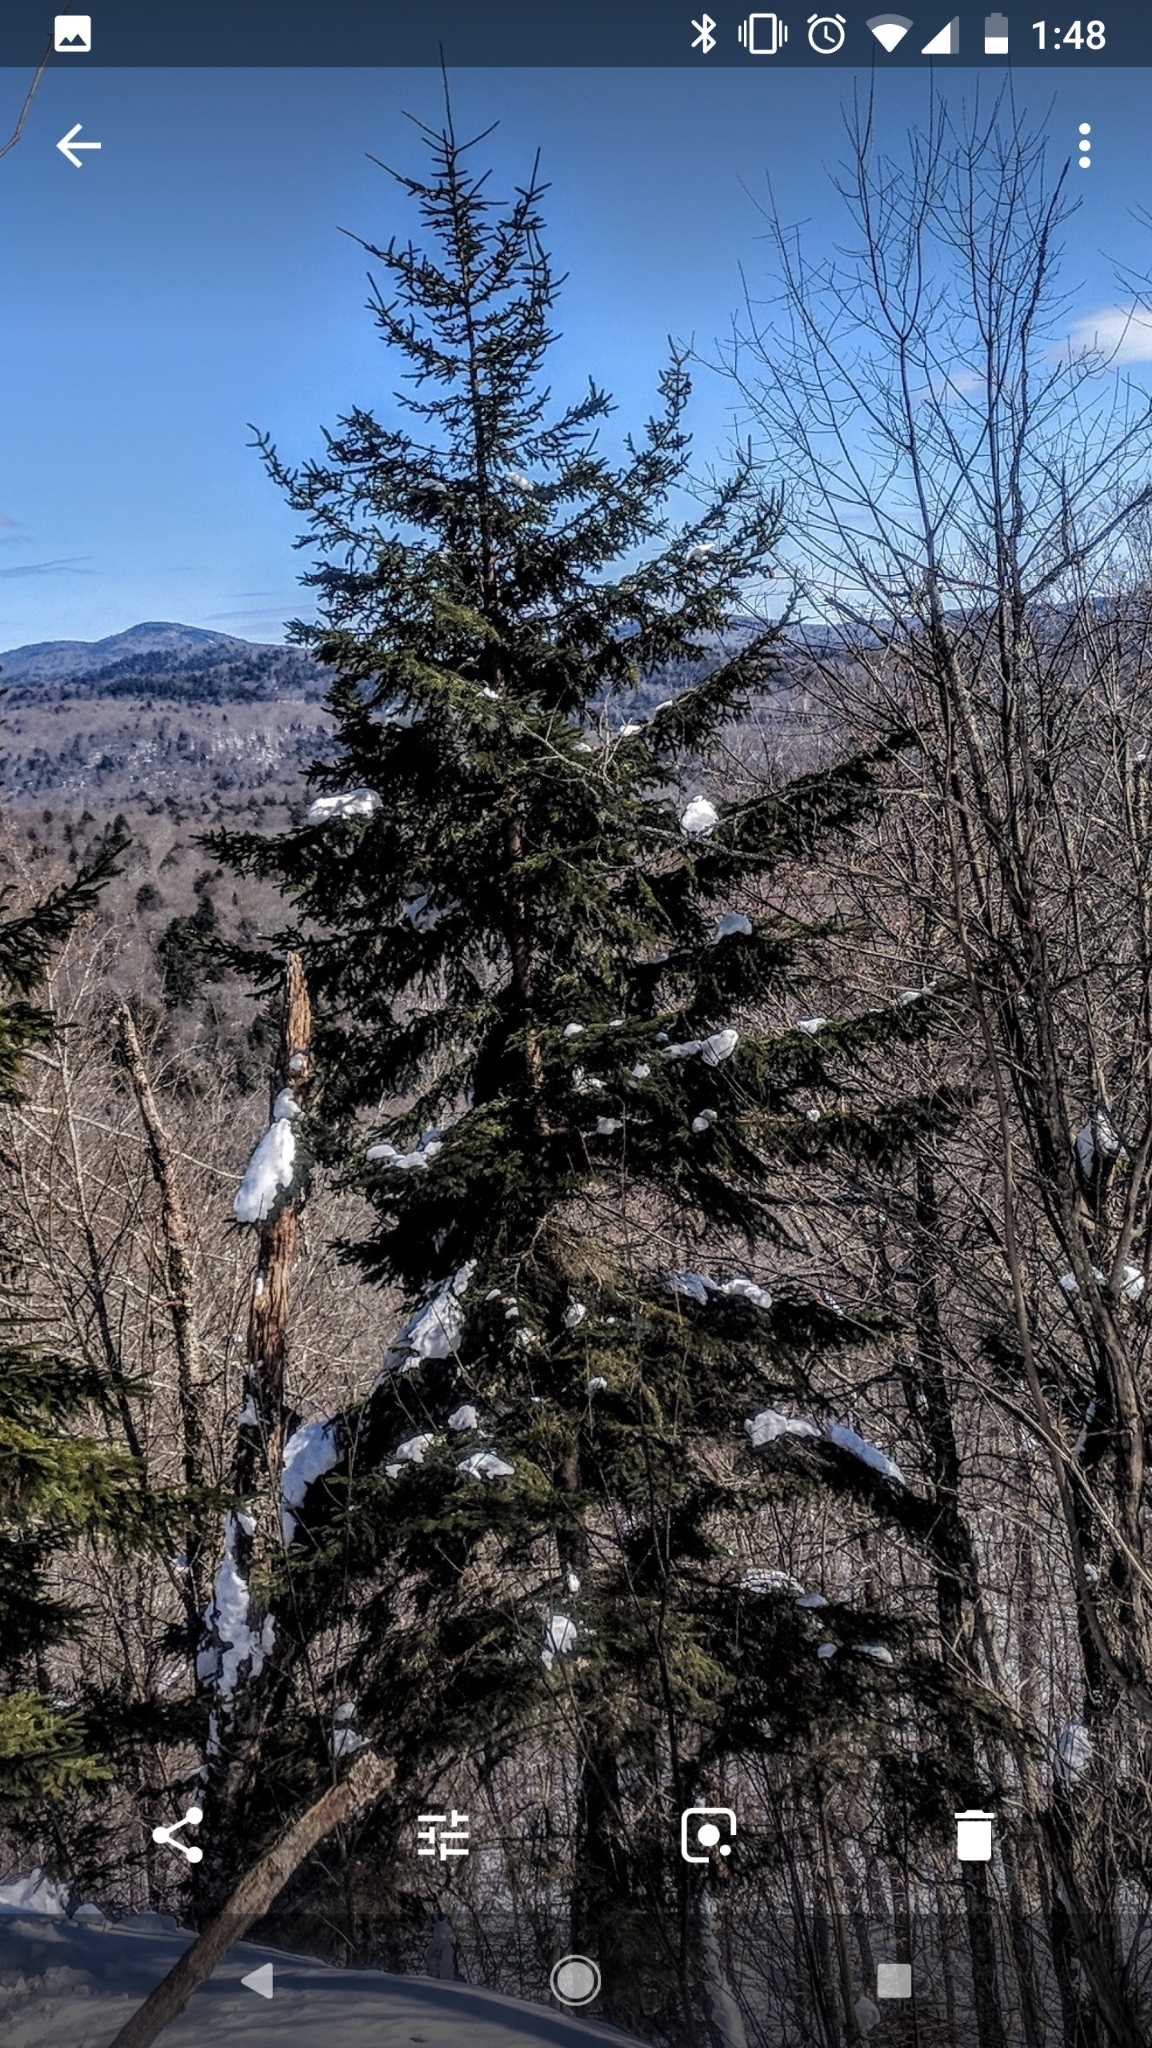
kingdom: Plantae
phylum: Tracheophyta
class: Pinopsida
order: Pinales
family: Pinaceae
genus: Picea
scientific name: Picea rubens
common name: Red spruce
